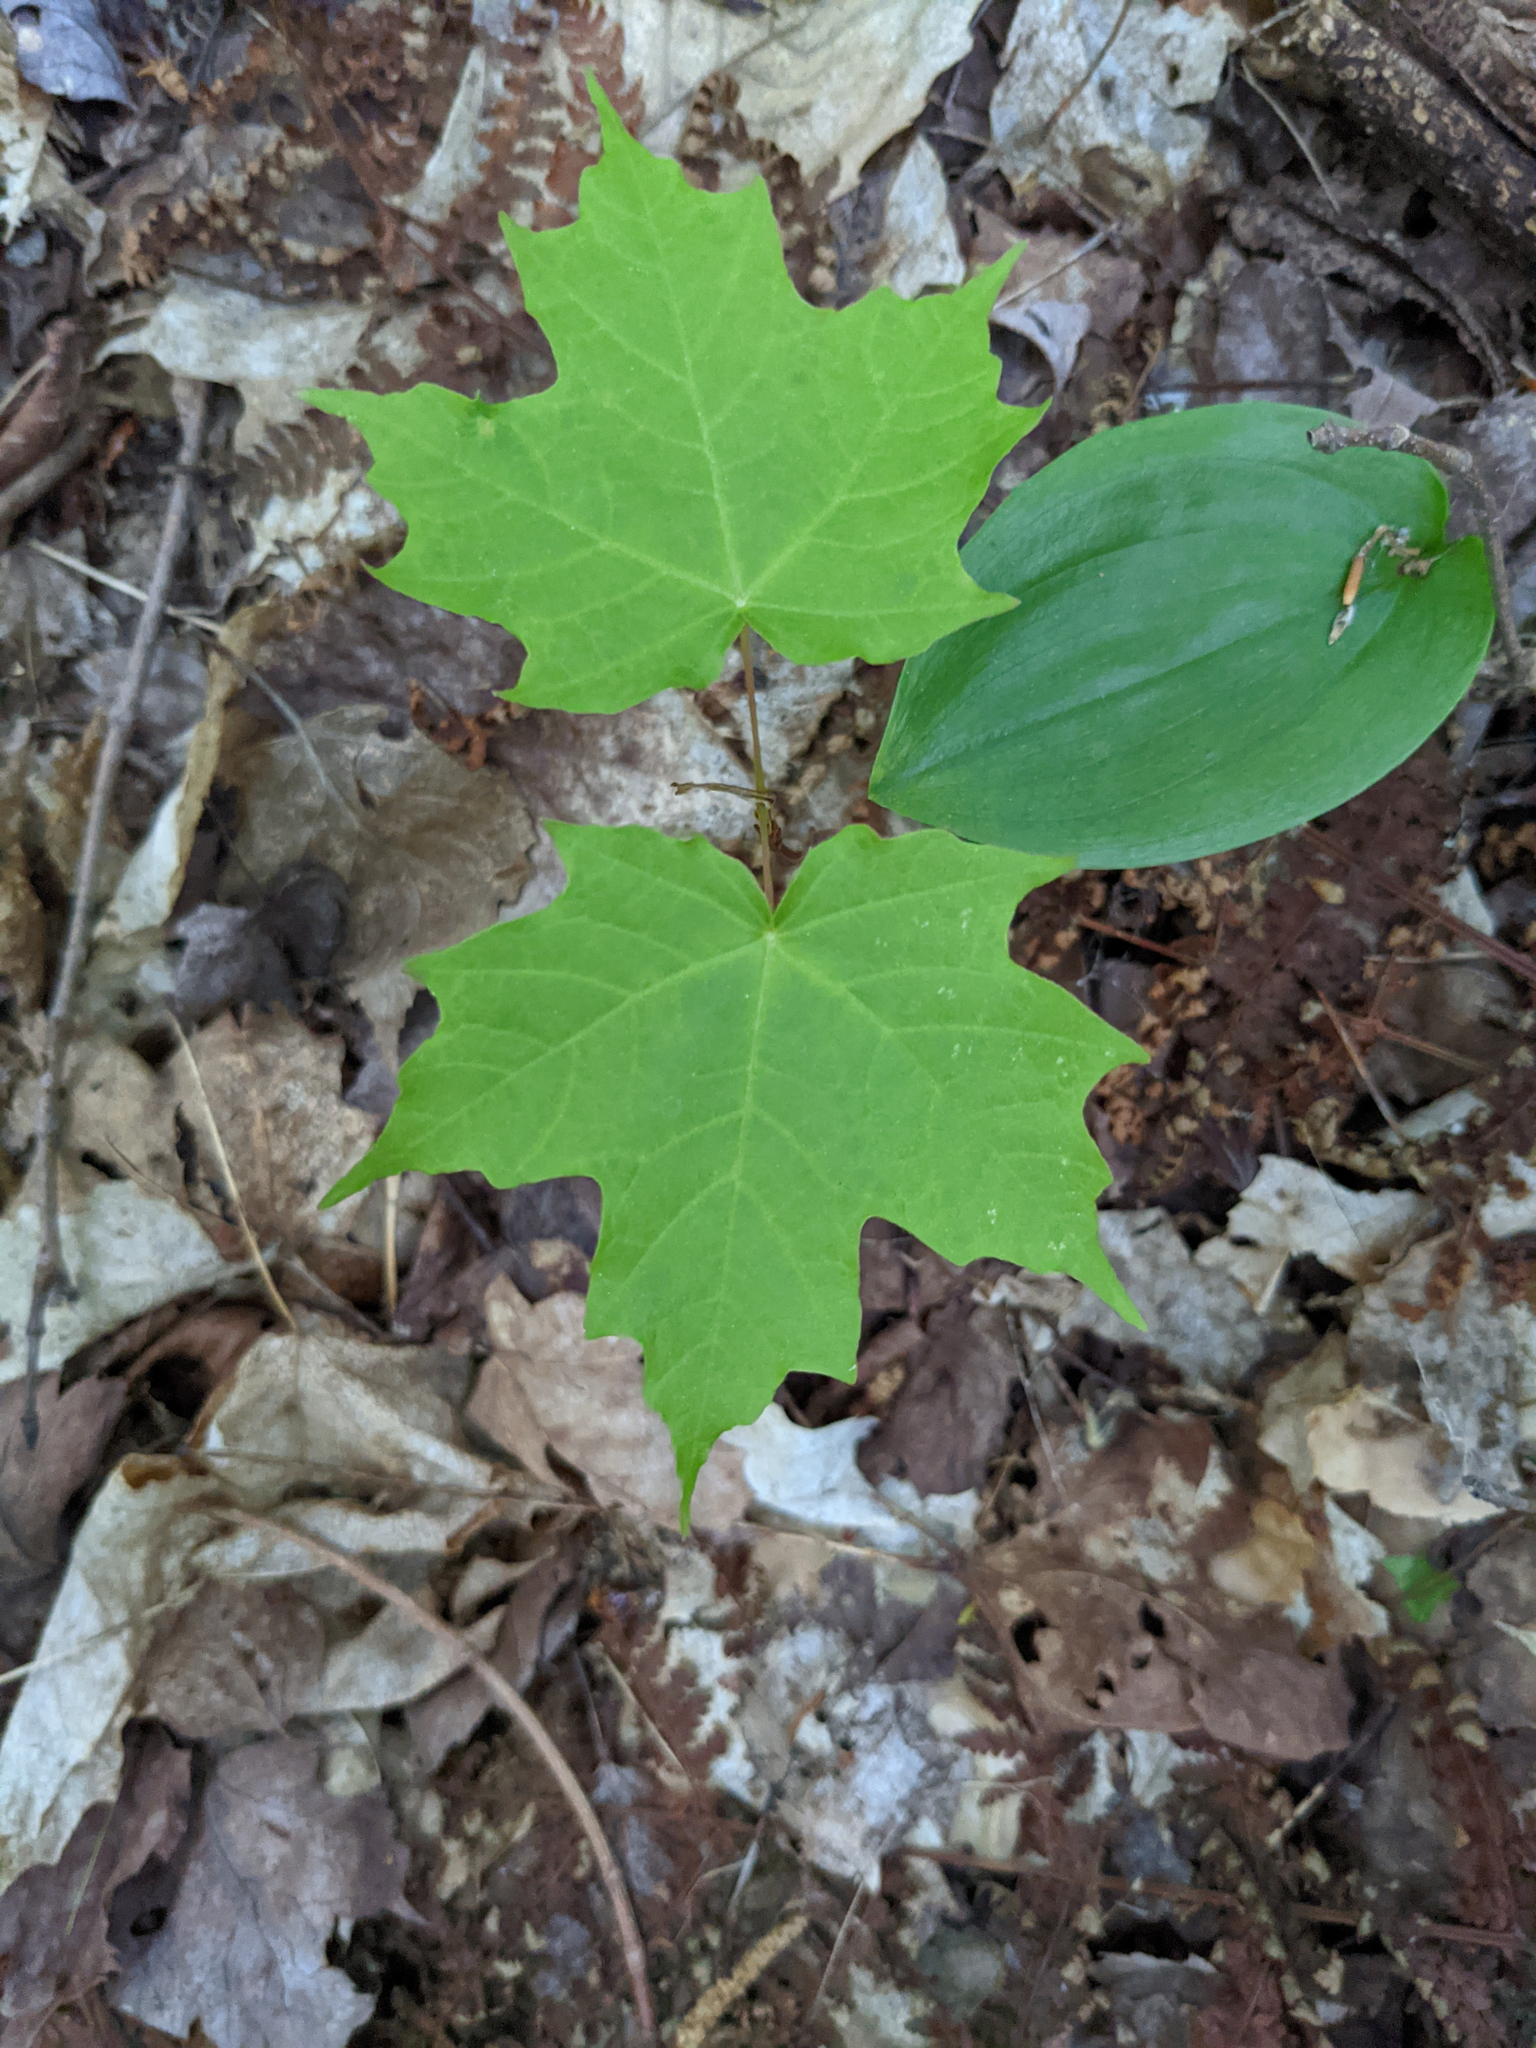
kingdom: Plantae
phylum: Tracheophyta
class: Magnoliopsida
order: Sapindales
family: Sapindaceae
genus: Acer
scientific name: Acer saccharum
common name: Sugar maple
